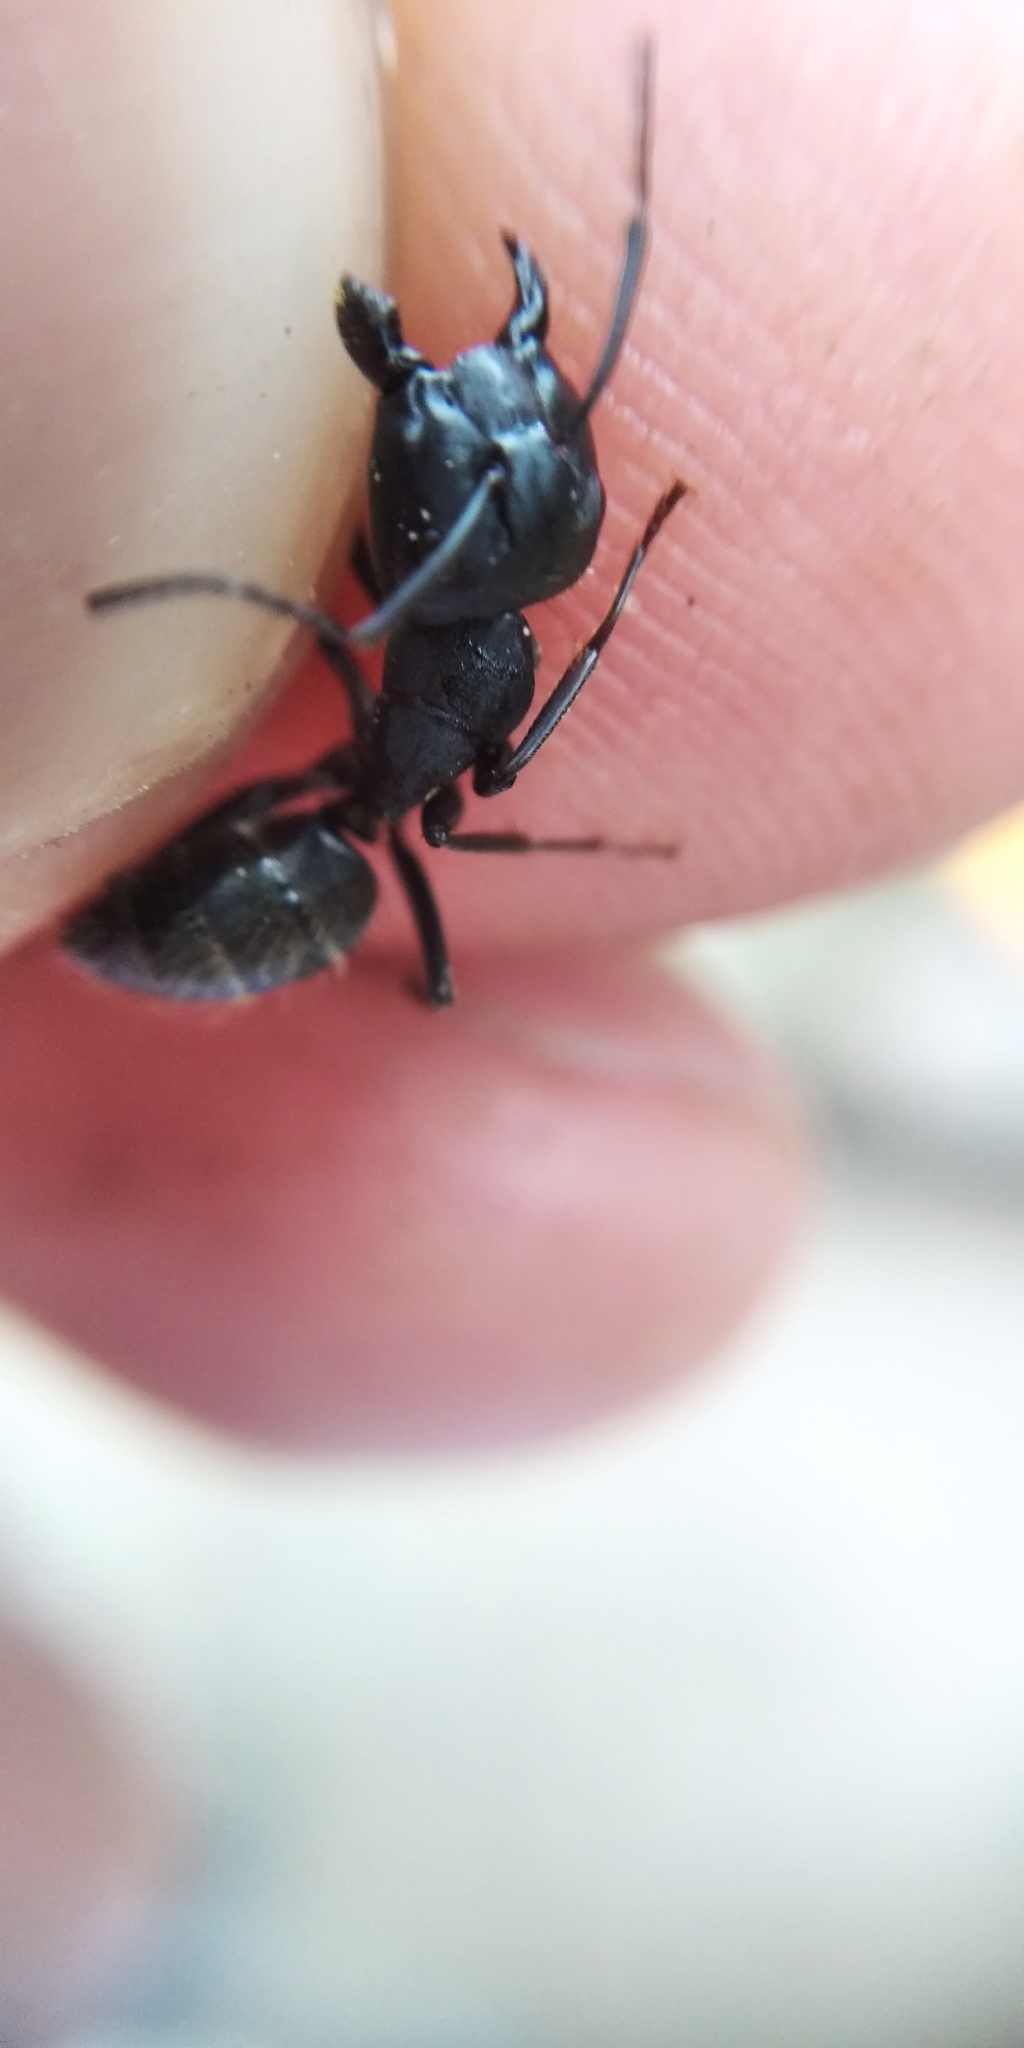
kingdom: Animalia
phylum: Arthropoda
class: Insecta
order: Hymenoptera
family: Formicidae
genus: Camponotus
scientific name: Camponotus vagus
